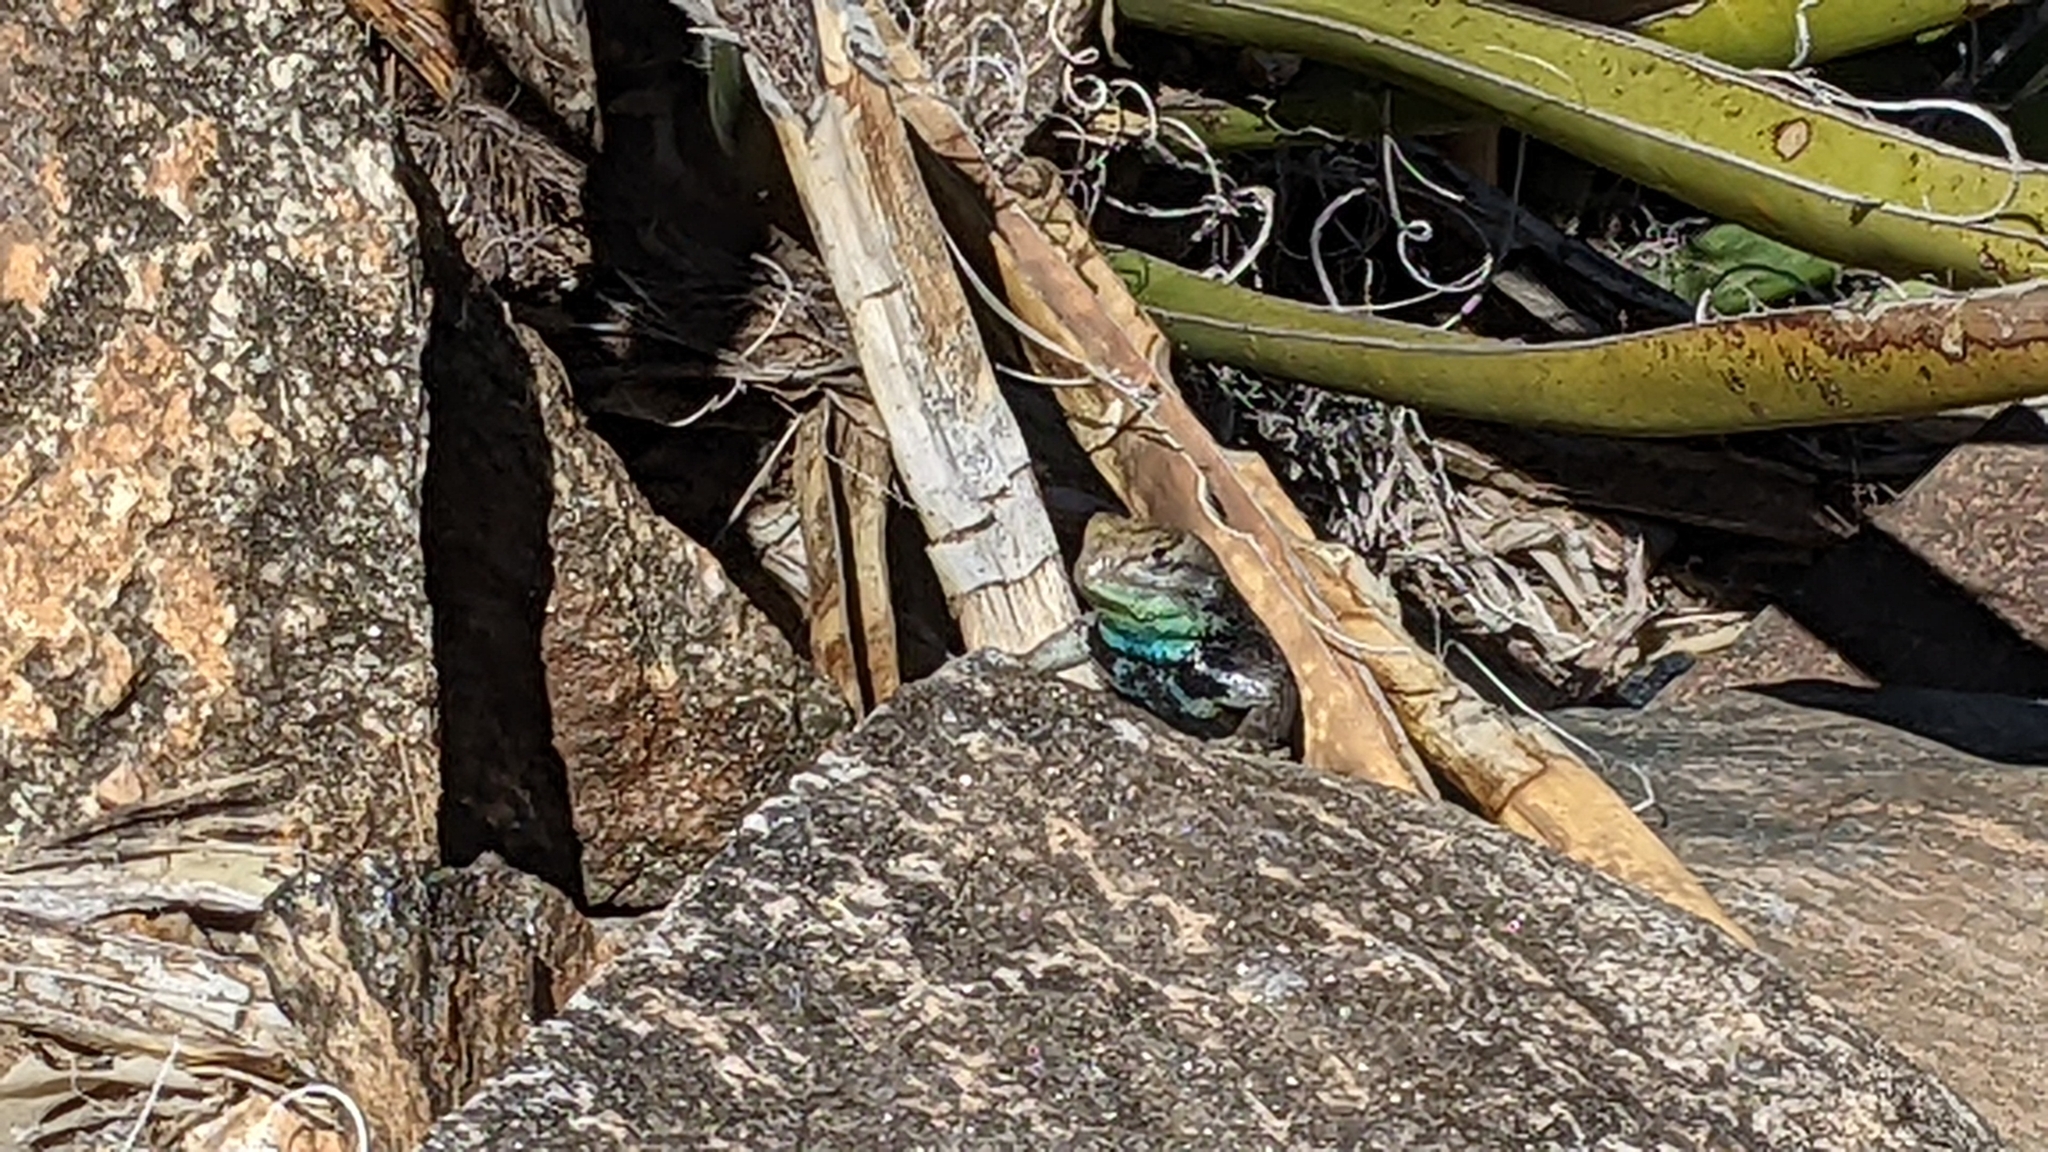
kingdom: Animalia
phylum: Chordata
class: Squamata
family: Phrynosomatidae
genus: Sceloporus
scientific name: Sceloporus magister
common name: Desert spiny lizard
